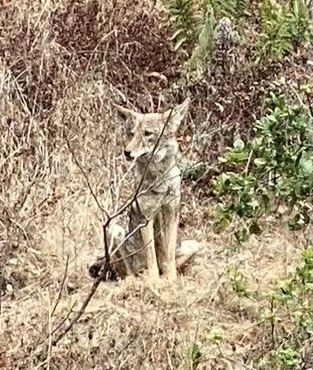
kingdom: Animalia
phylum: Chordata
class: Mammalia
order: Carnivora
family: Canidae
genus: Canis
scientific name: Canis latrans
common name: Coyote
